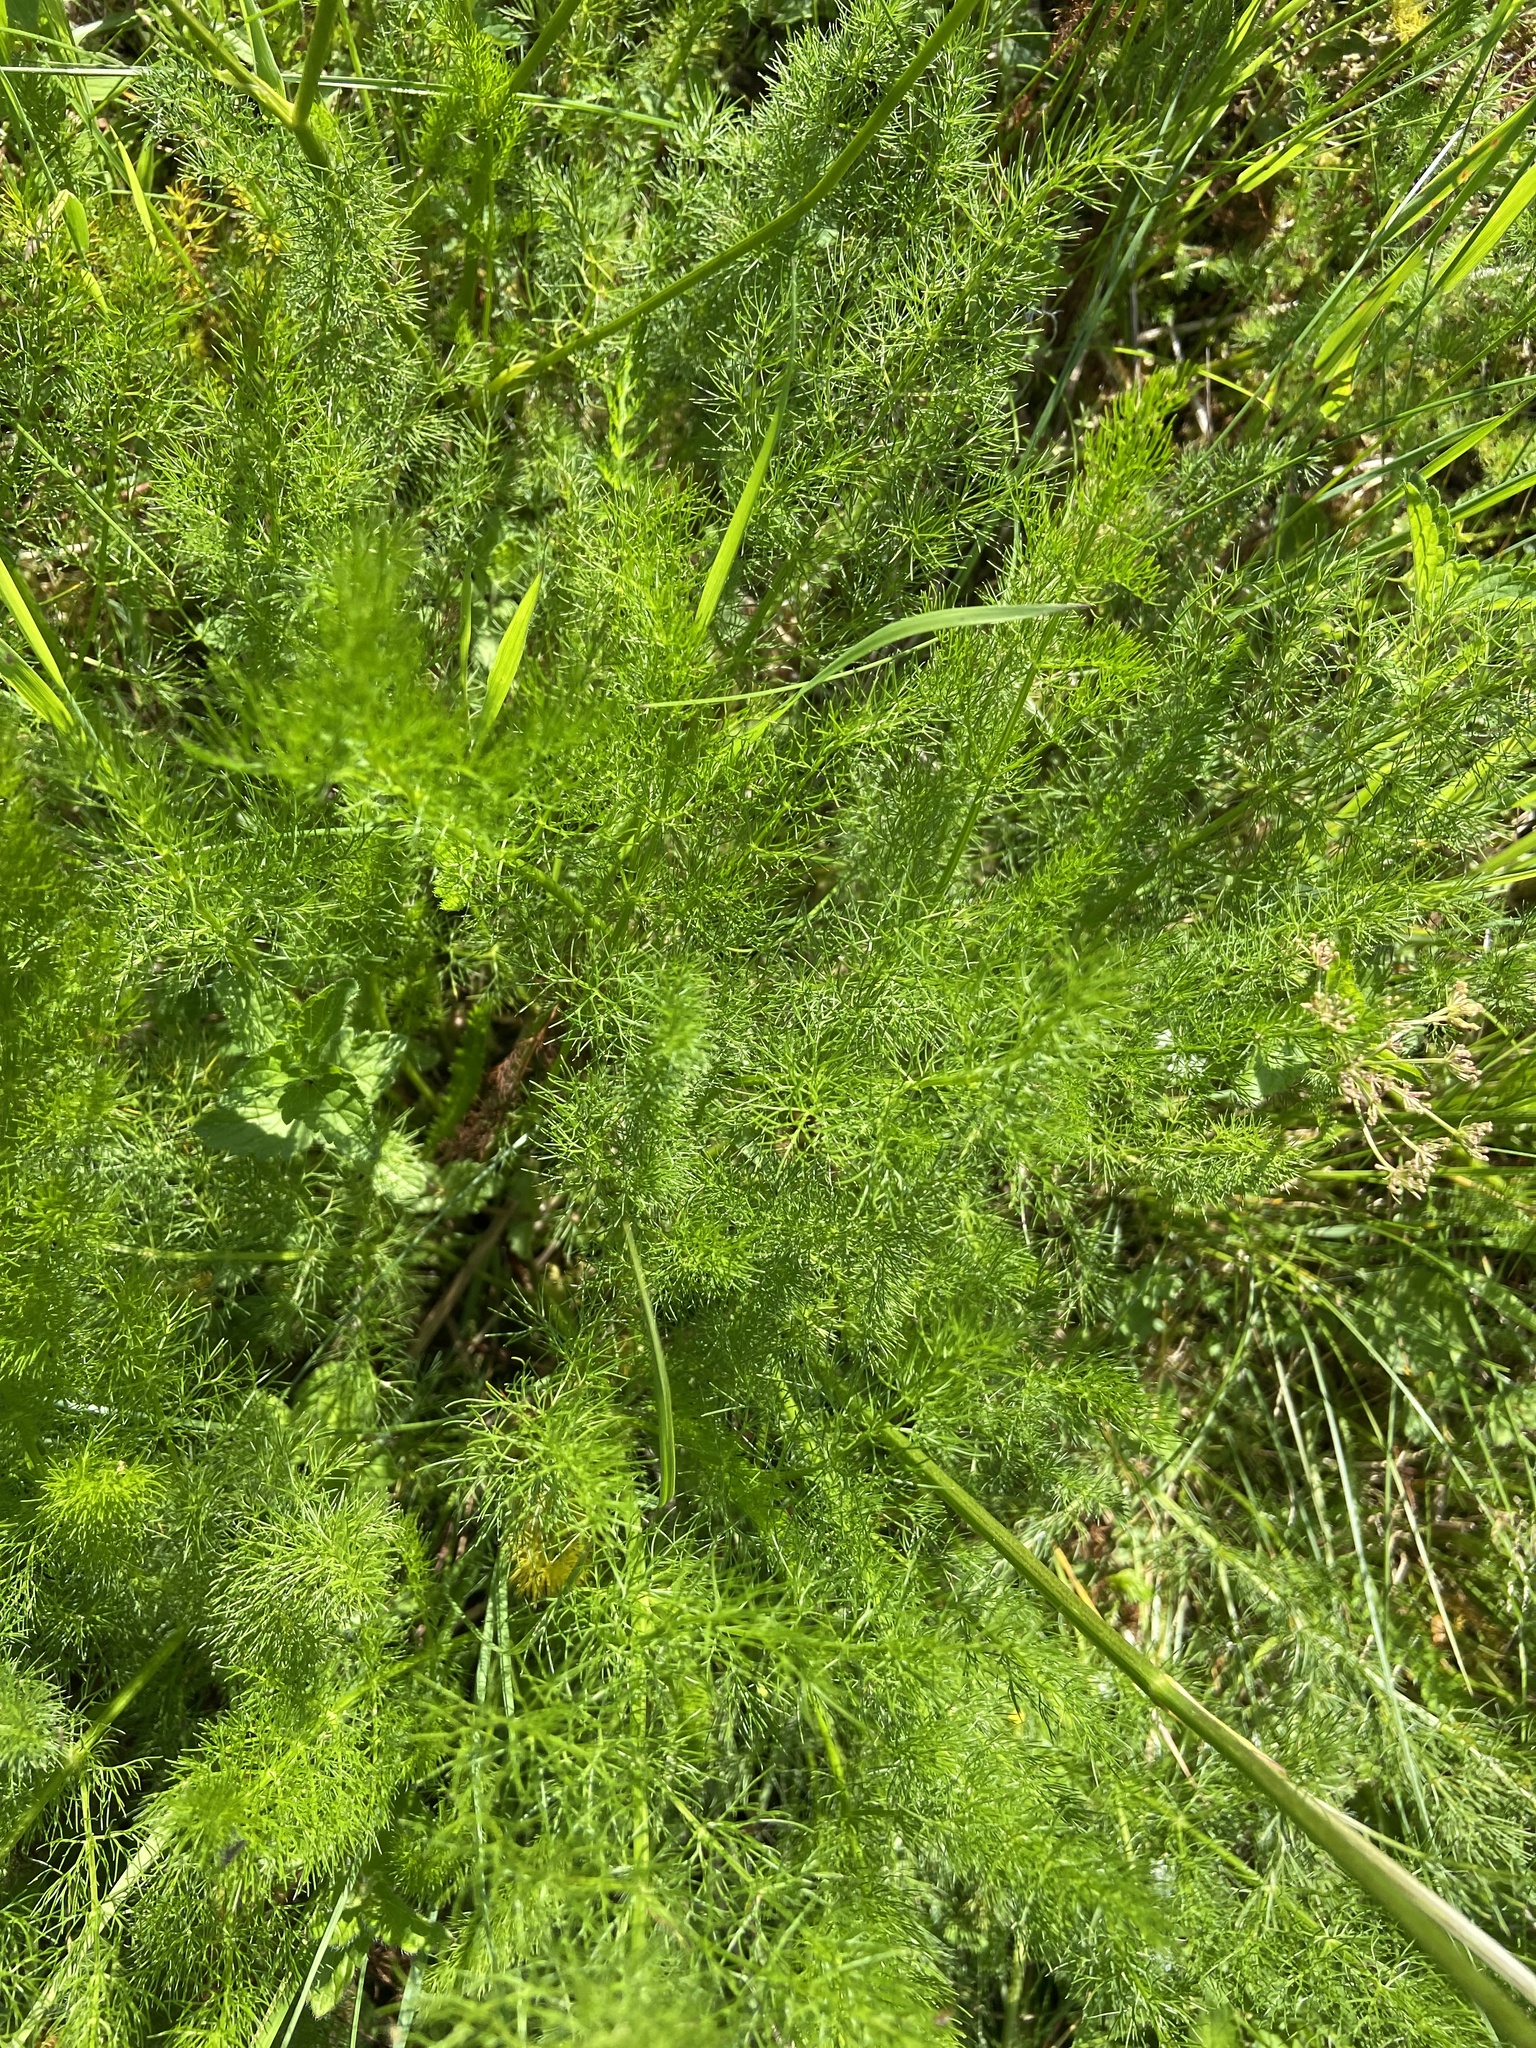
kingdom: Plantae
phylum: Tracheophyta
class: Magnoliopsida
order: Apiales
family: Apiaceae
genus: Meum
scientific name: Meum athamanticum
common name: Spignel
